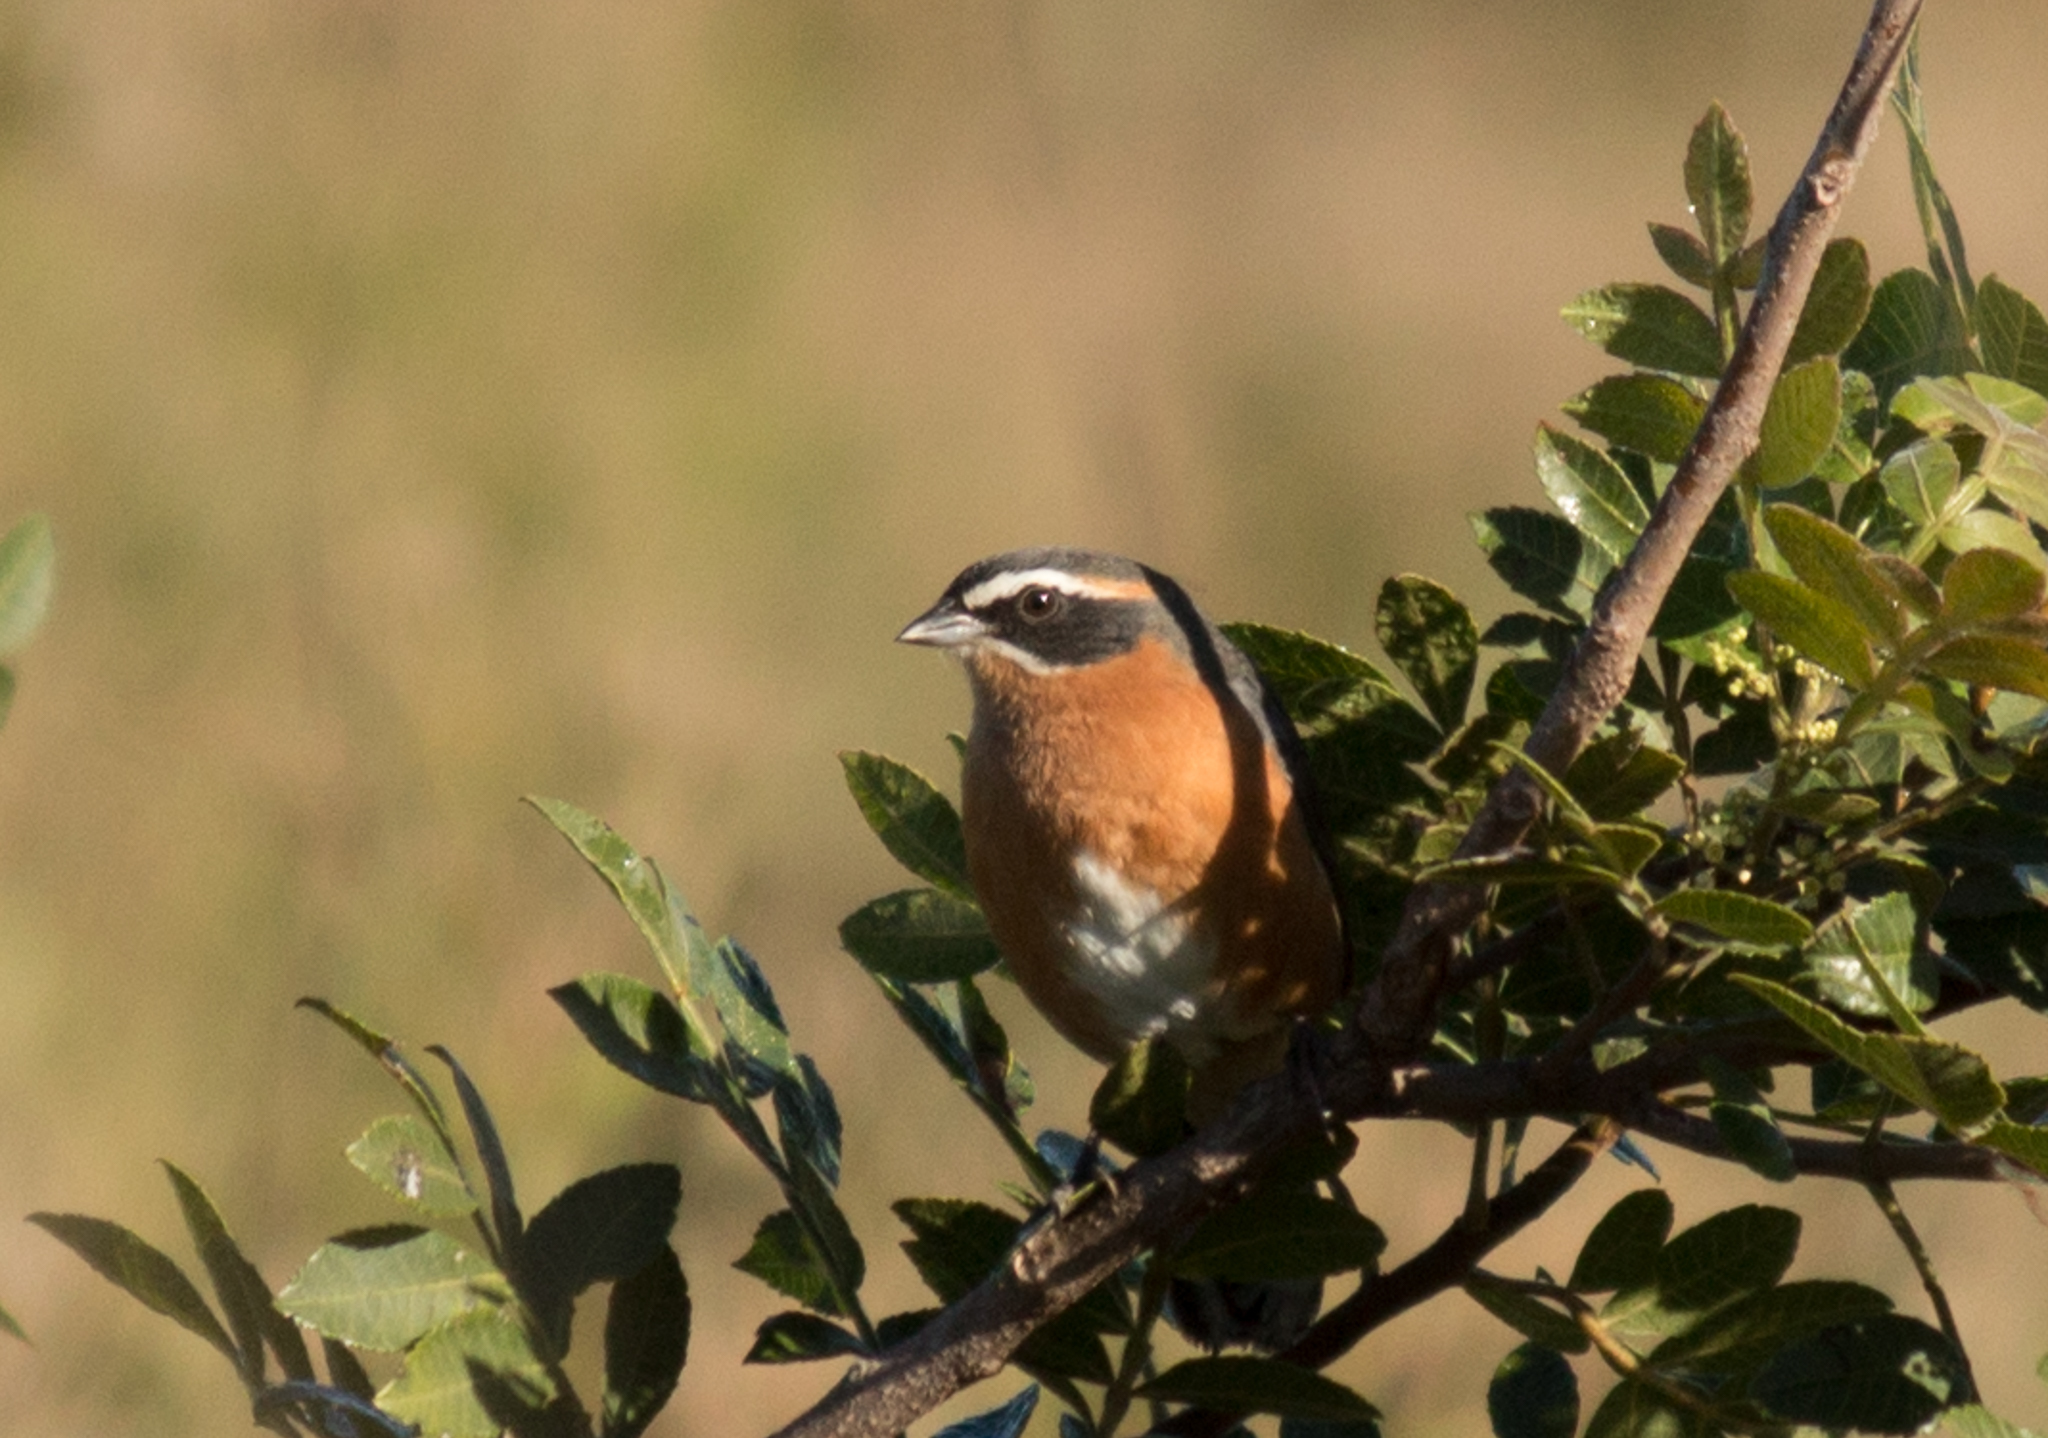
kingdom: Animalia
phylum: Chordata
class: Aves
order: Passeriformes
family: Thraupidae
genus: Poospiza
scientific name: Poospiza nigrorufa
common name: Black-and-rufous warbling finch
